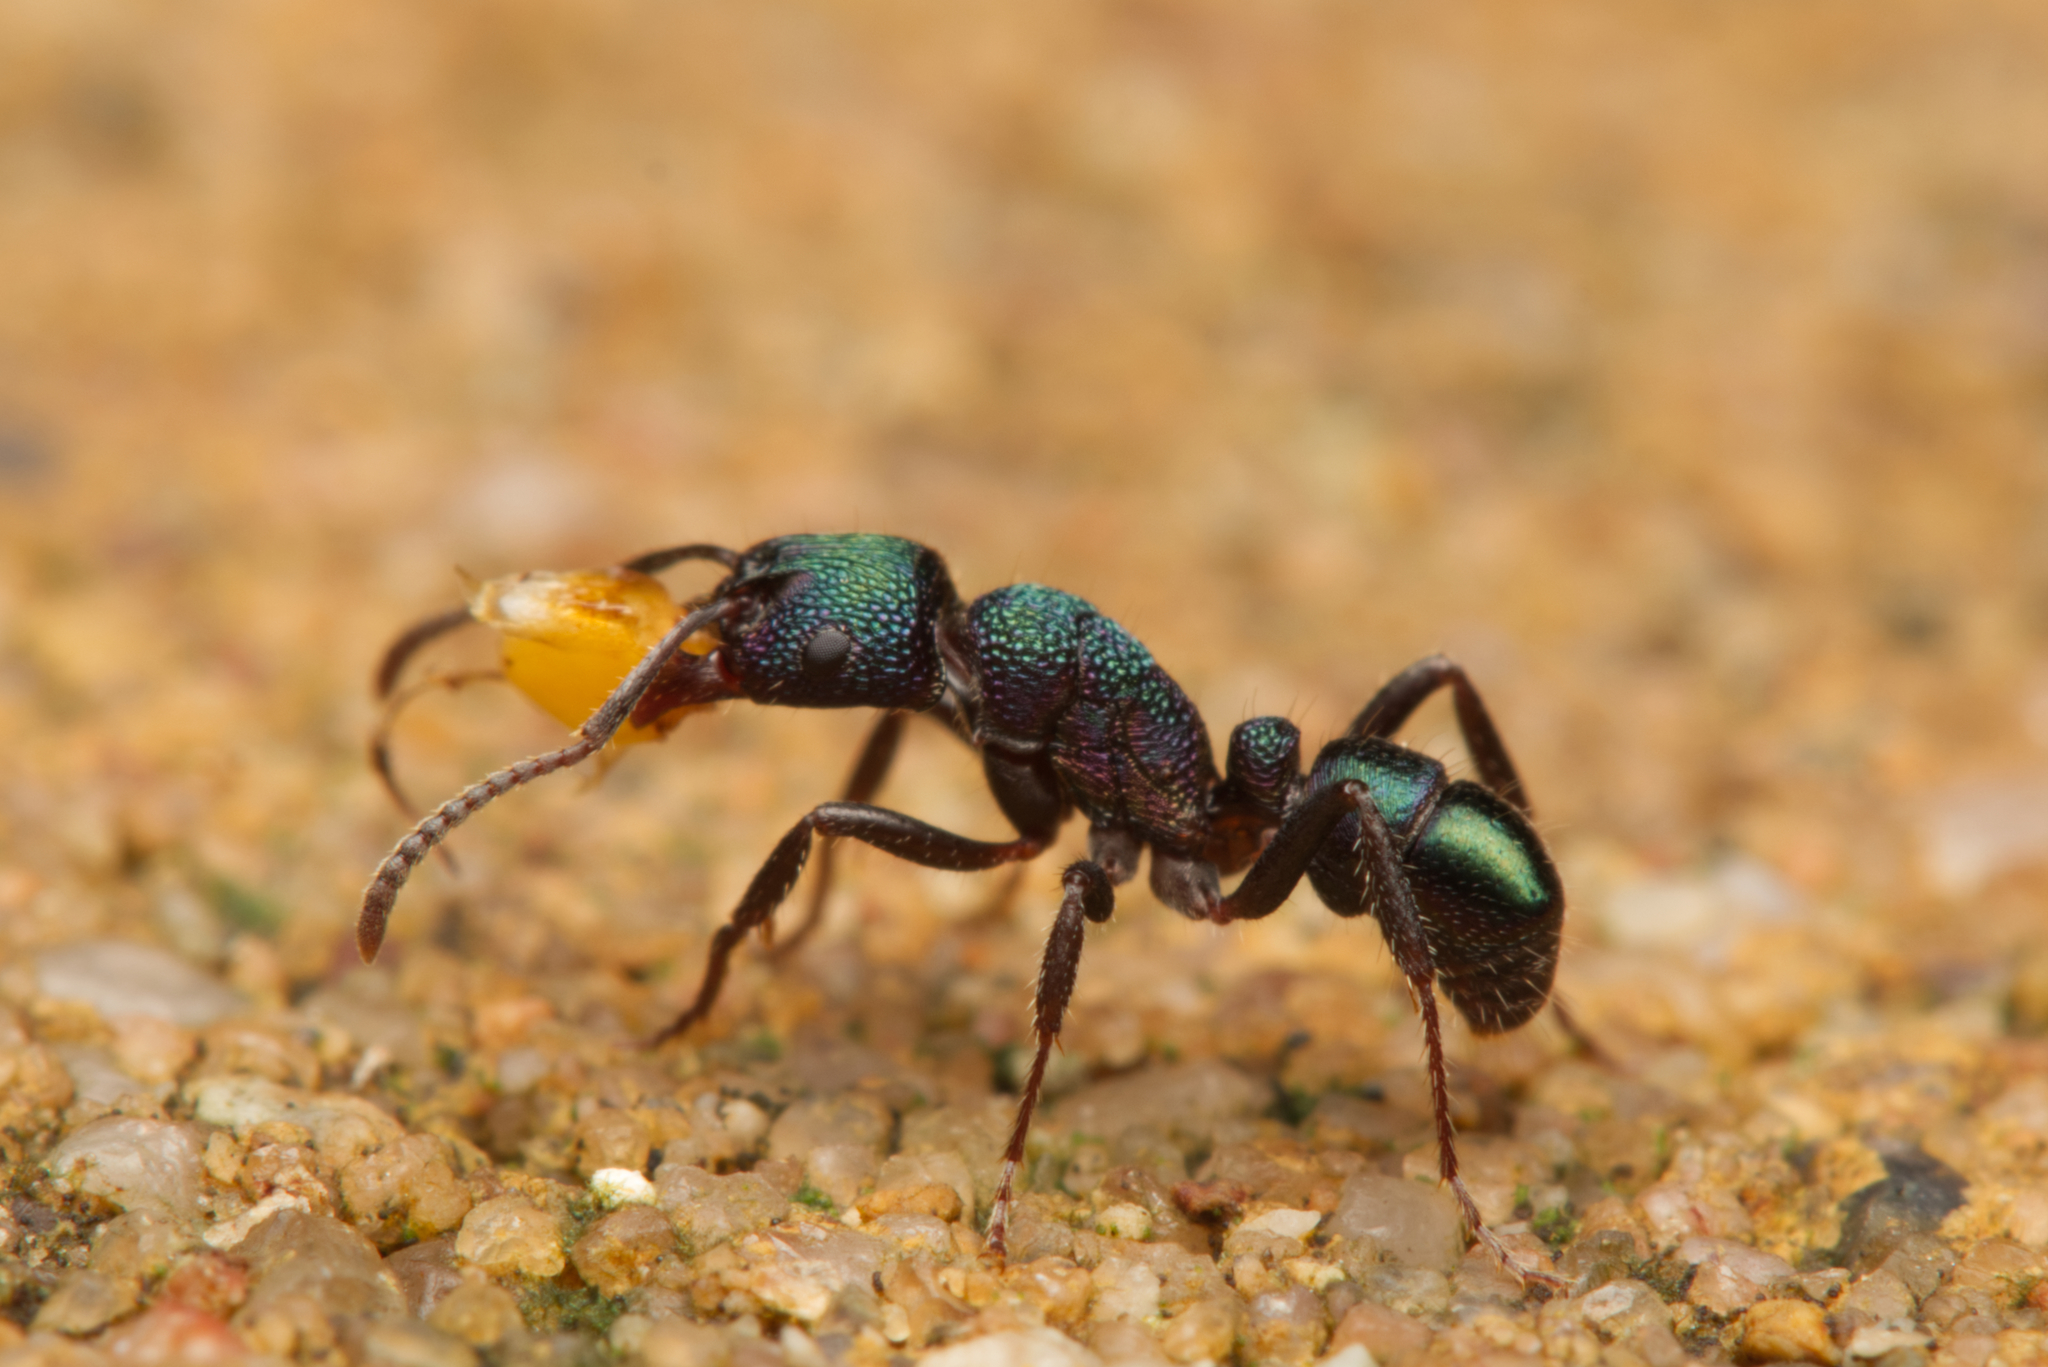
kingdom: Animalia
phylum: Arthropoda
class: Insecta
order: Hymenoptera
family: Formicidae
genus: Rhytidoponera
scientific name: Rhytidoponera metallica
